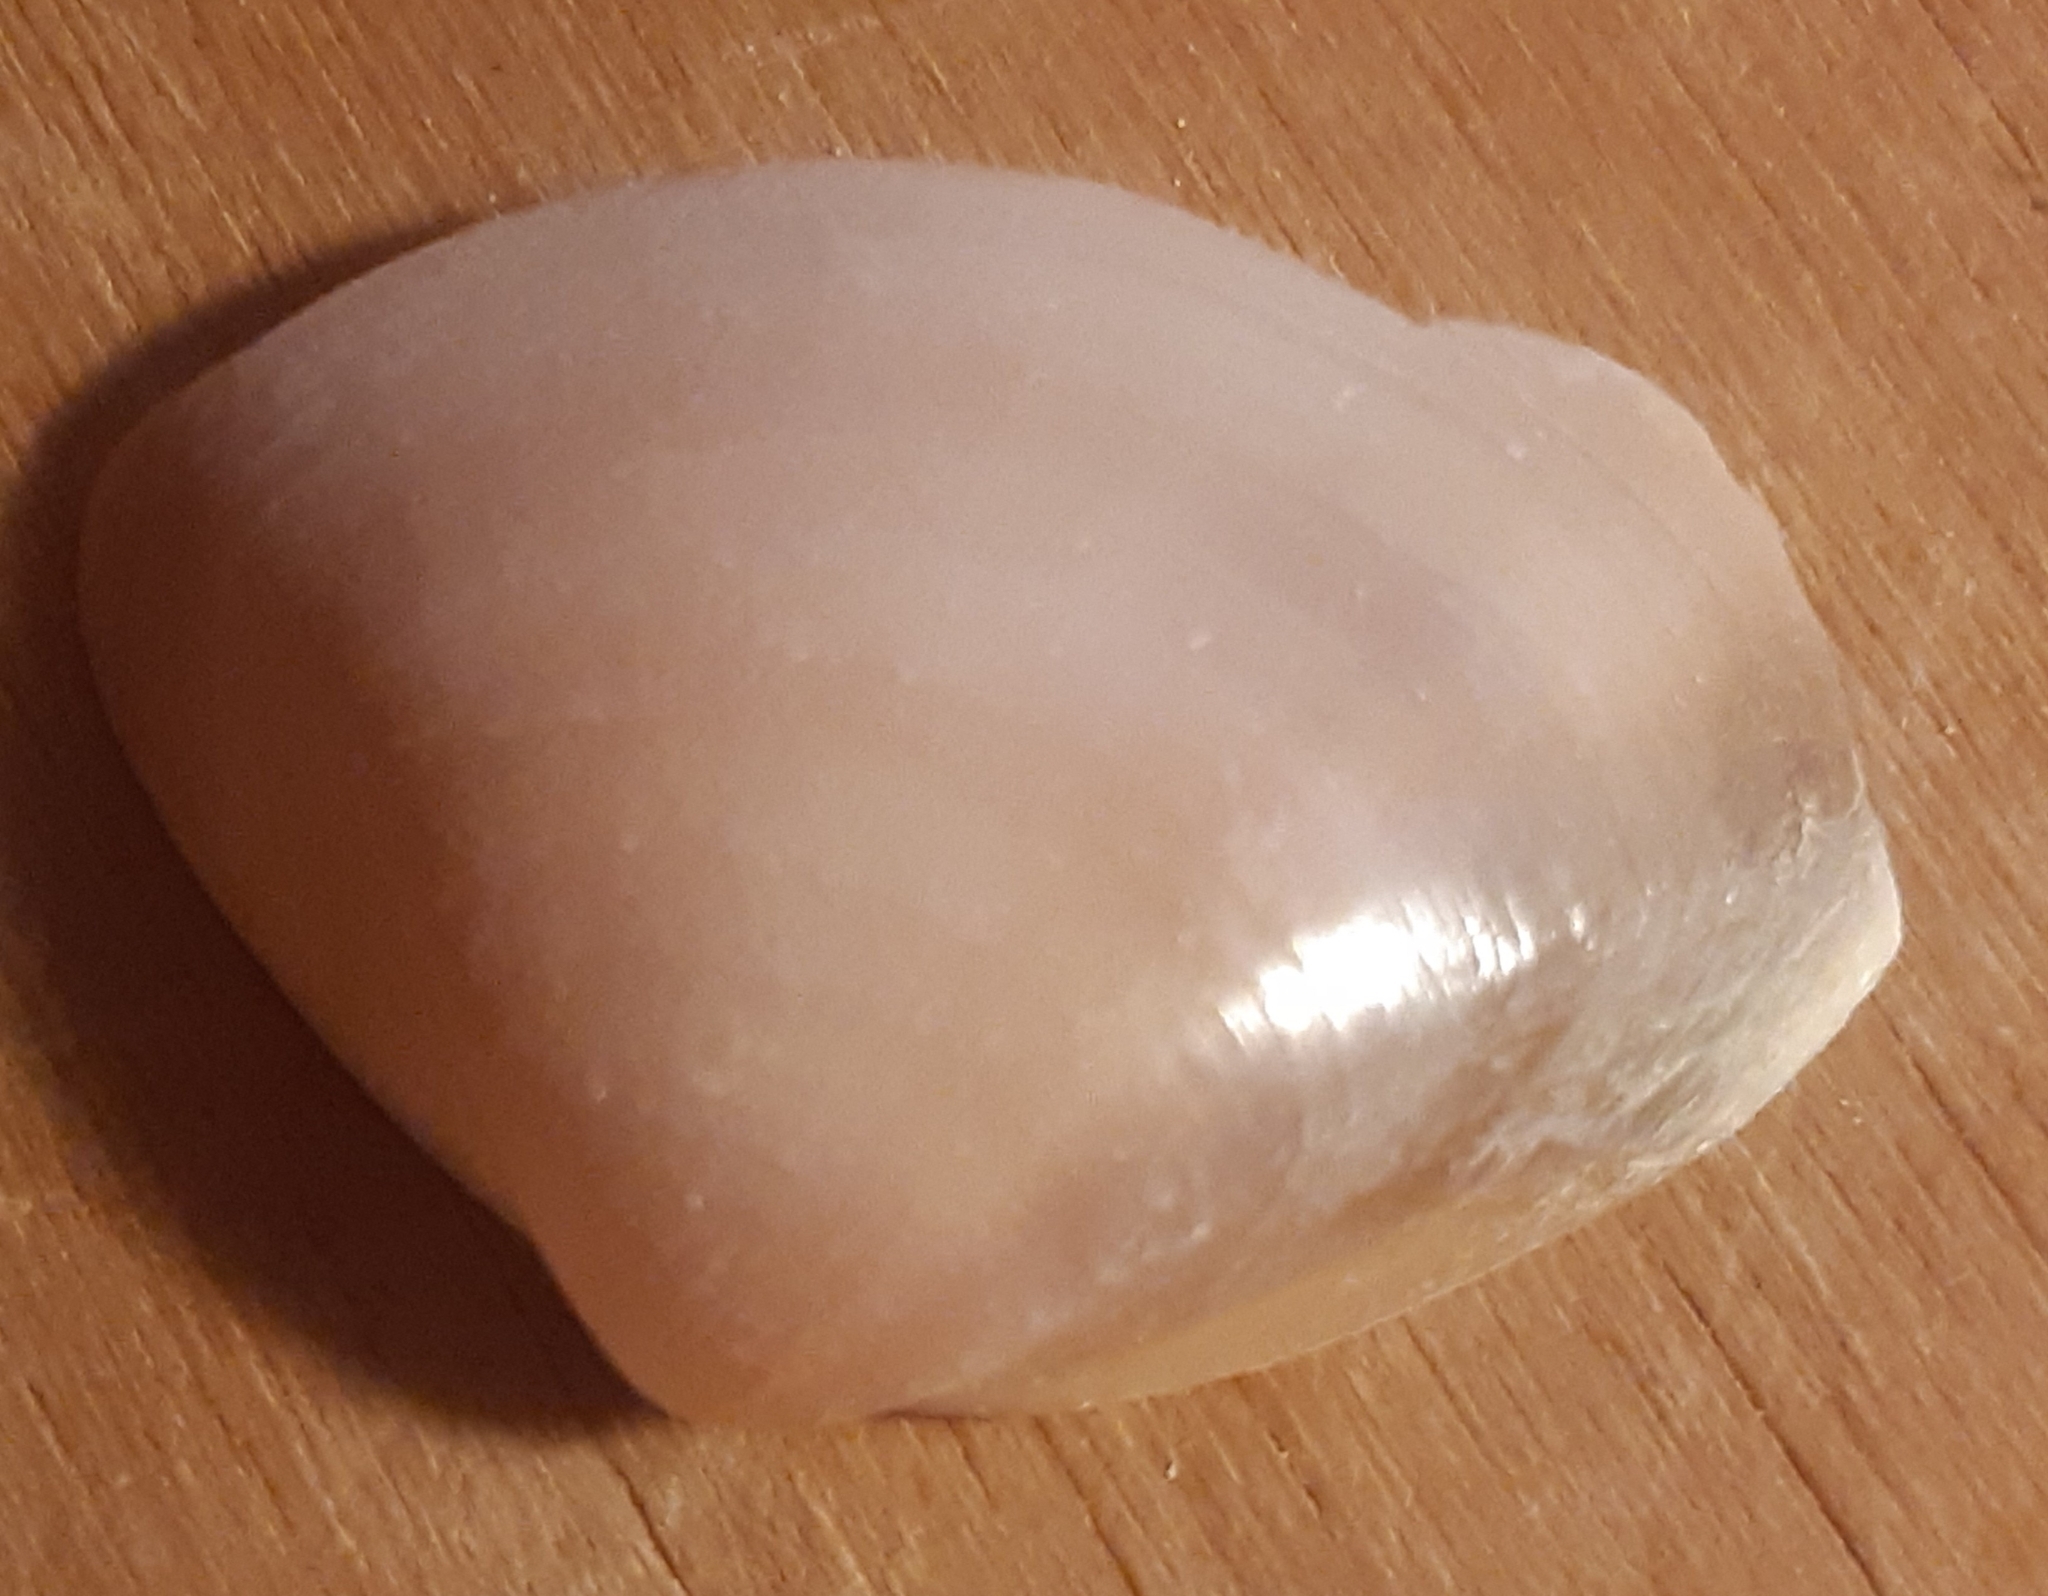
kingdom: Animalia
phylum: Mollusca
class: Bivalvia
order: Venerida
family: Mactridae
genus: Mactra
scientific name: Mactra stultorum
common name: Rayed trough shell
